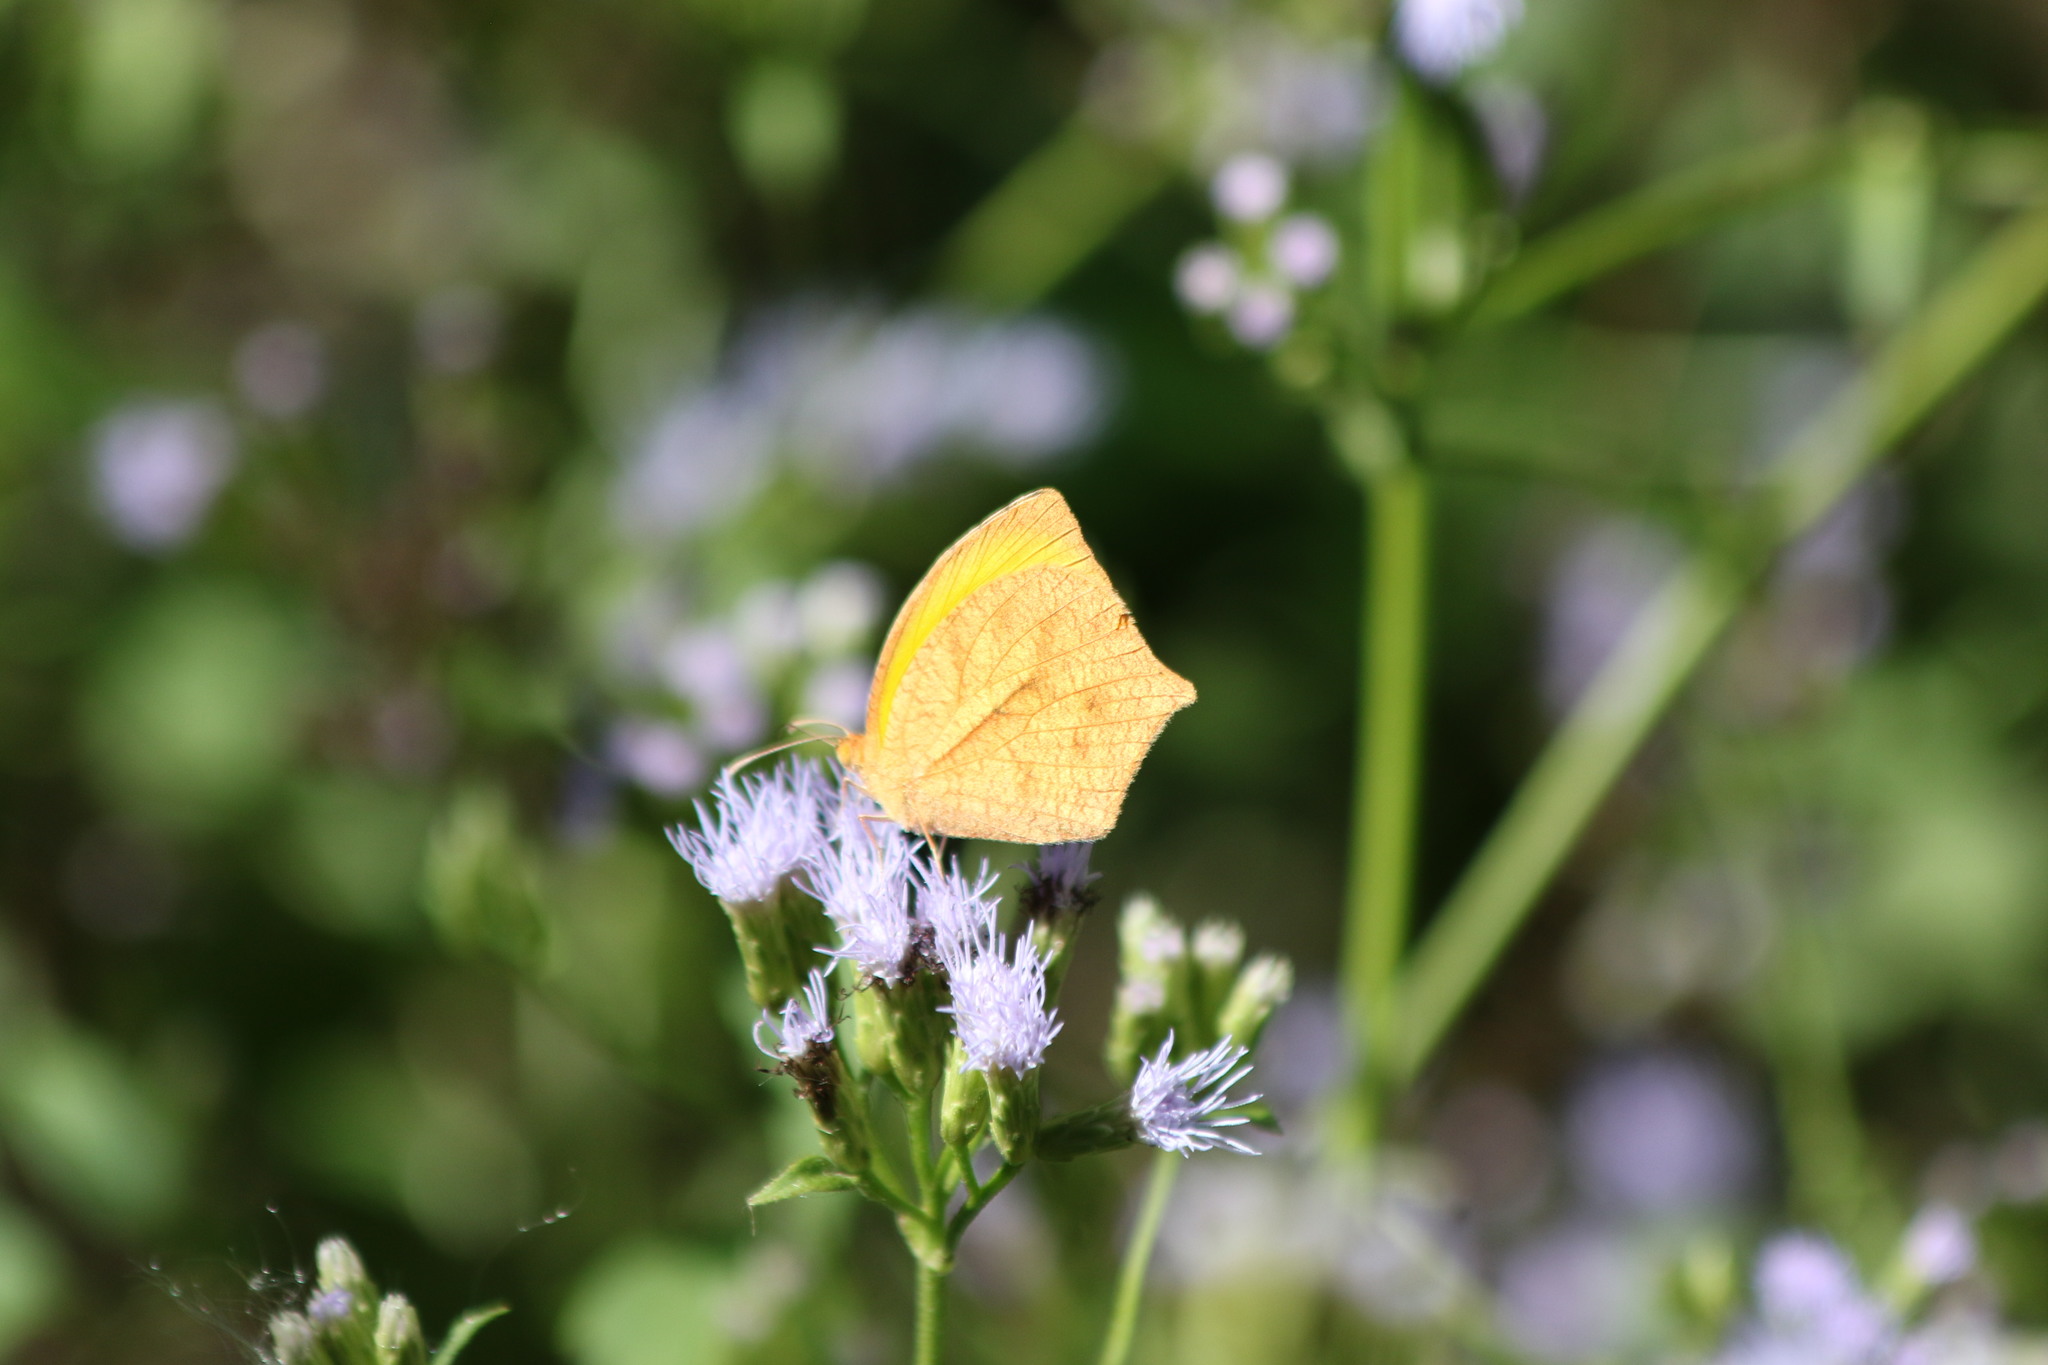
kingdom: Animalia
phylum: Arthropoda
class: Insecta
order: Lepidoptera
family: Pieridae
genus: Pyrisitia
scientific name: Pyrisitia proterpia
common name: Tailed orange
